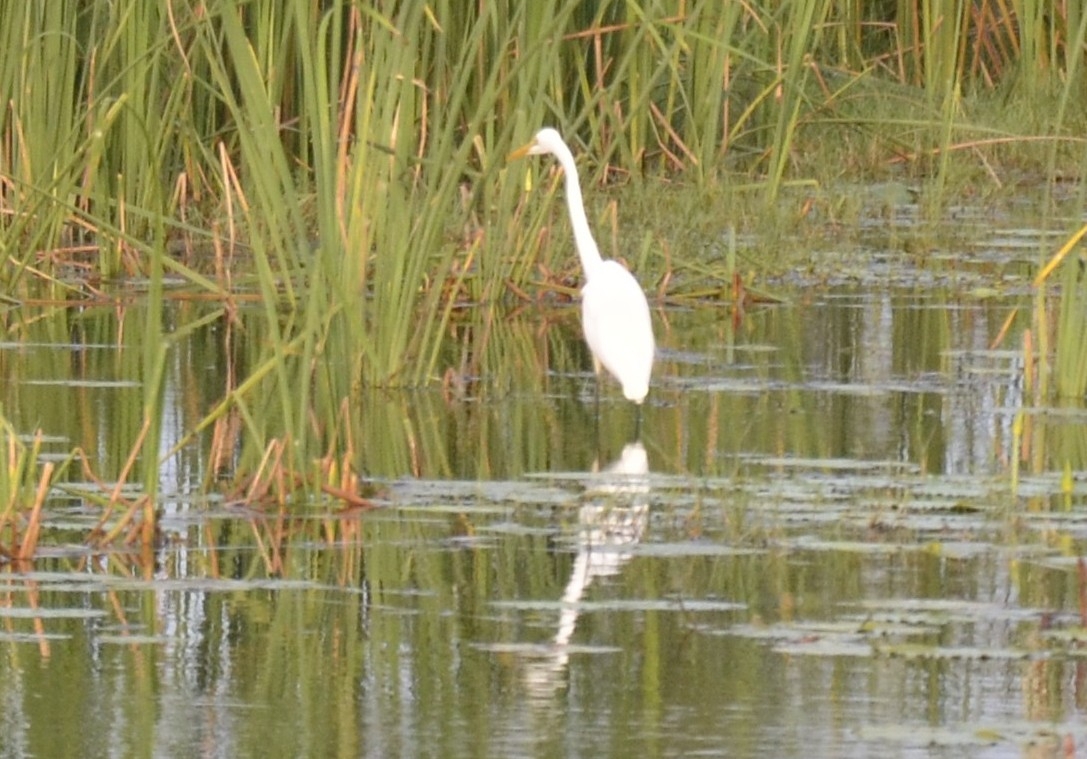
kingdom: Animalia
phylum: Chordata
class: Aves
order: Pelecaniformes
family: Ardeidae
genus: Ardea
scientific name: Ardea alba
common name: Great egret
